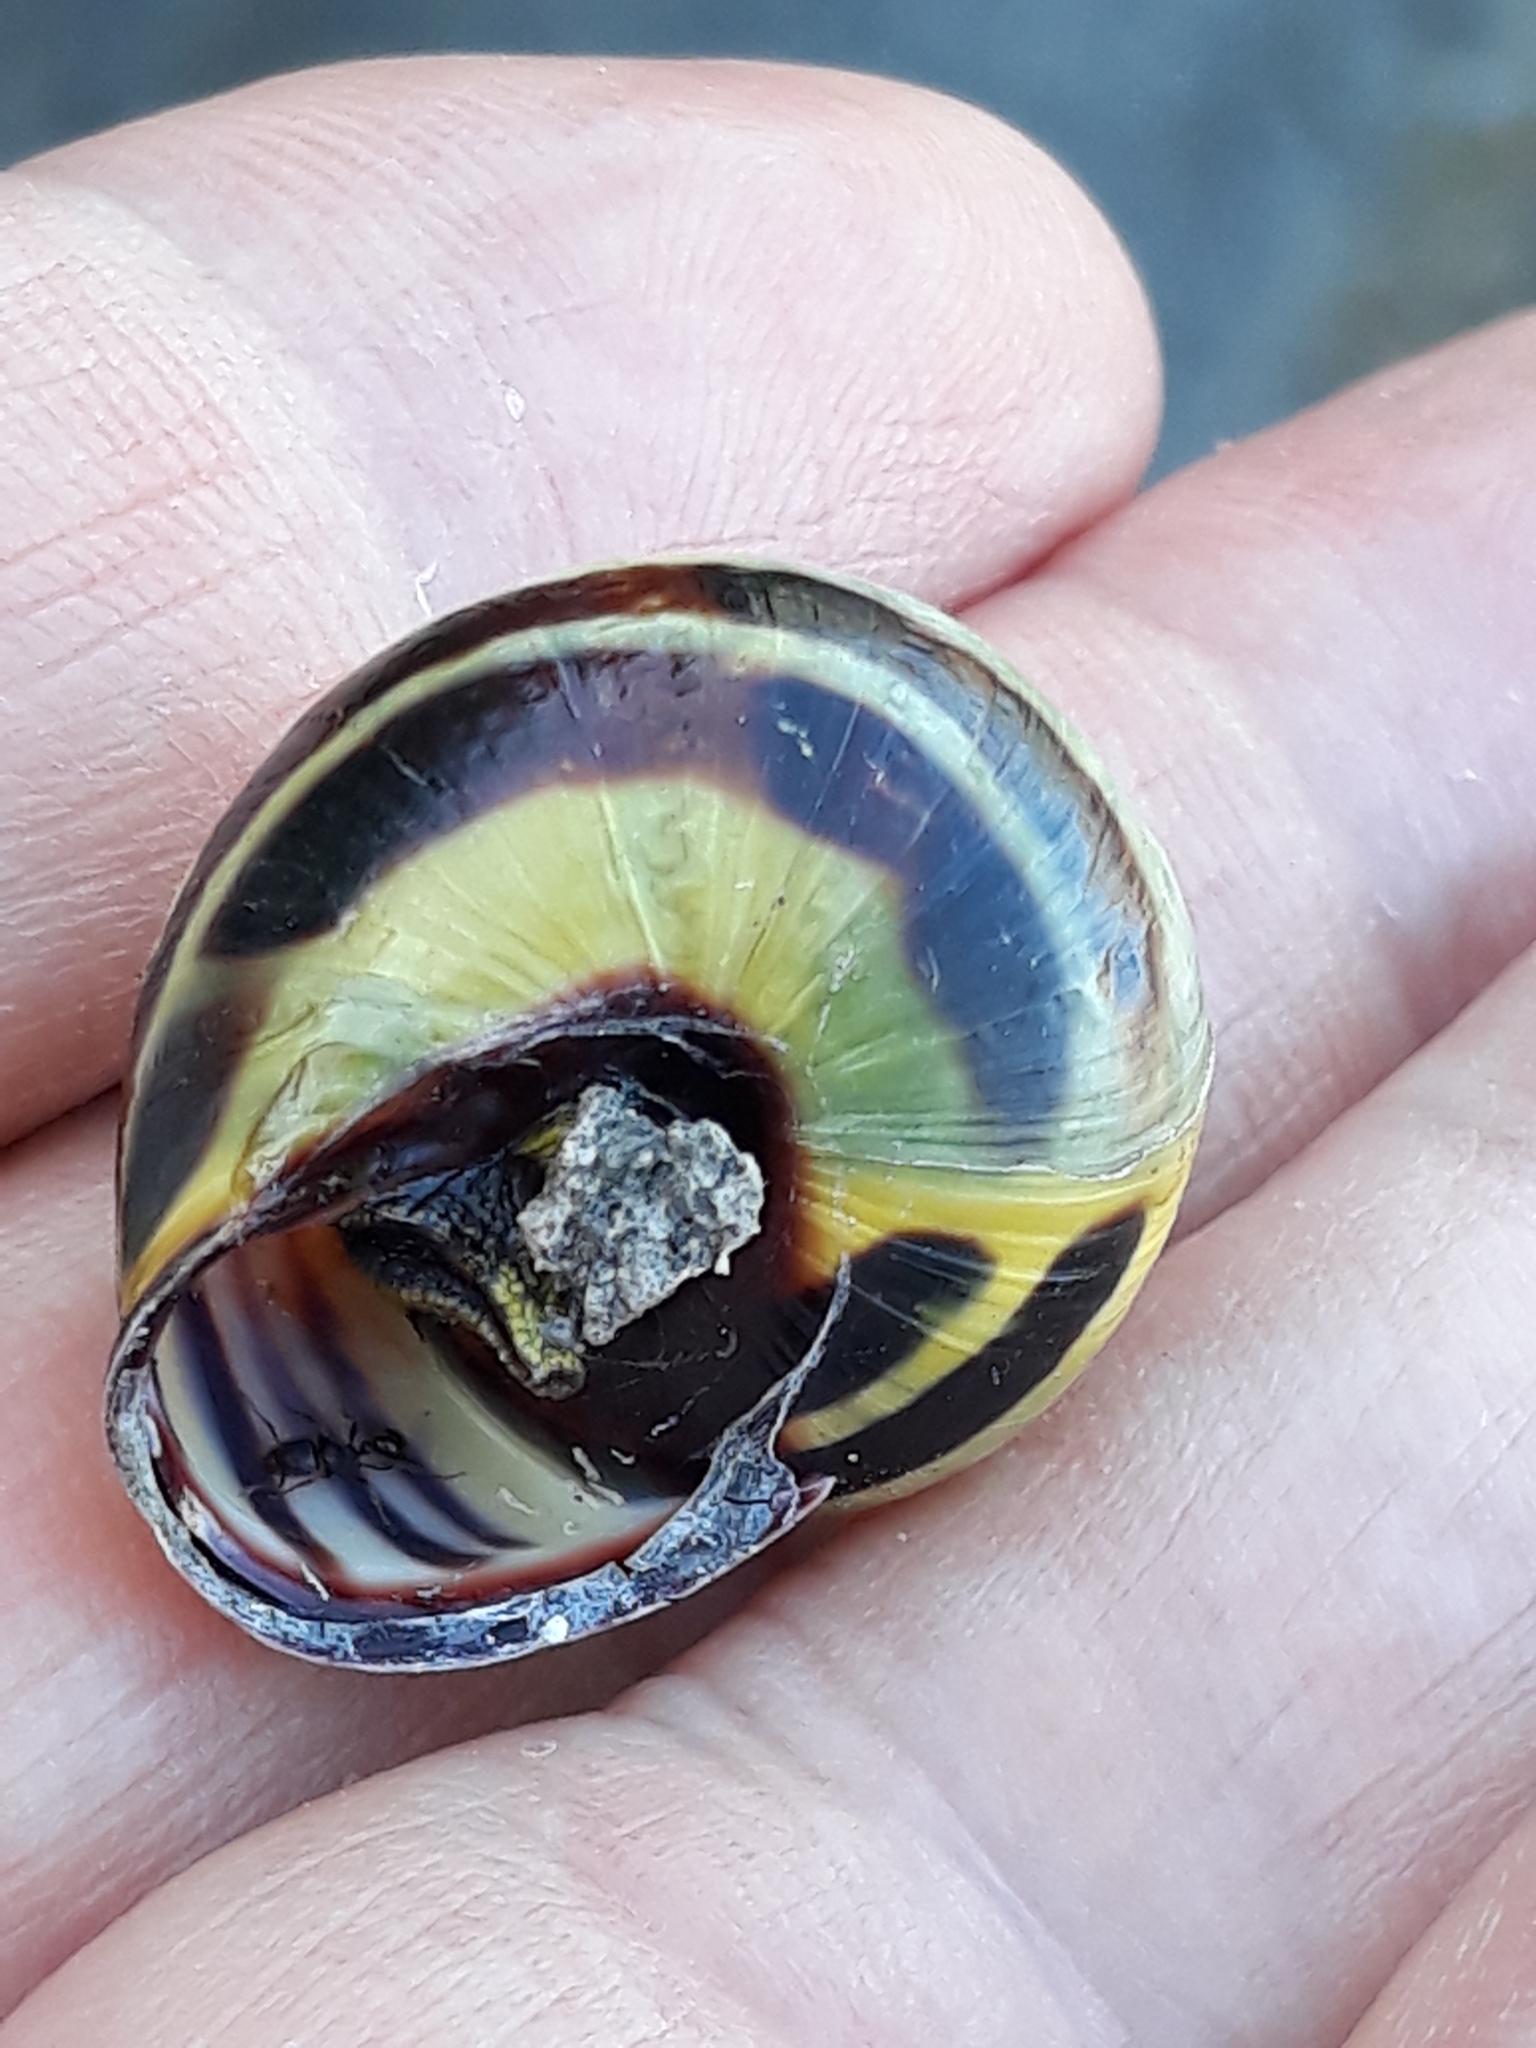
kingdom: Animalia
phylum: Mollusca
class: Gastropoda
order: Stylommatophora
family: Helicidae
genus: Cepaea
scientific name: Cepaea nemoralis
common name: Grovesnail
